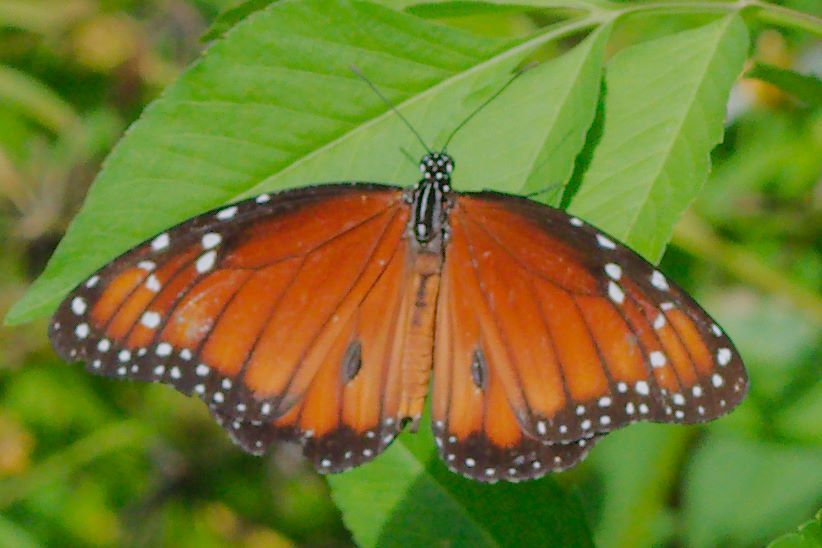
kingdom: Animalia
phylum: Arthropoda
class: Insecta
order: Lepidoptera
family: Nymphalidae
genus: Danaus
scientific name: Danaus eresimus
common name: Soldier
